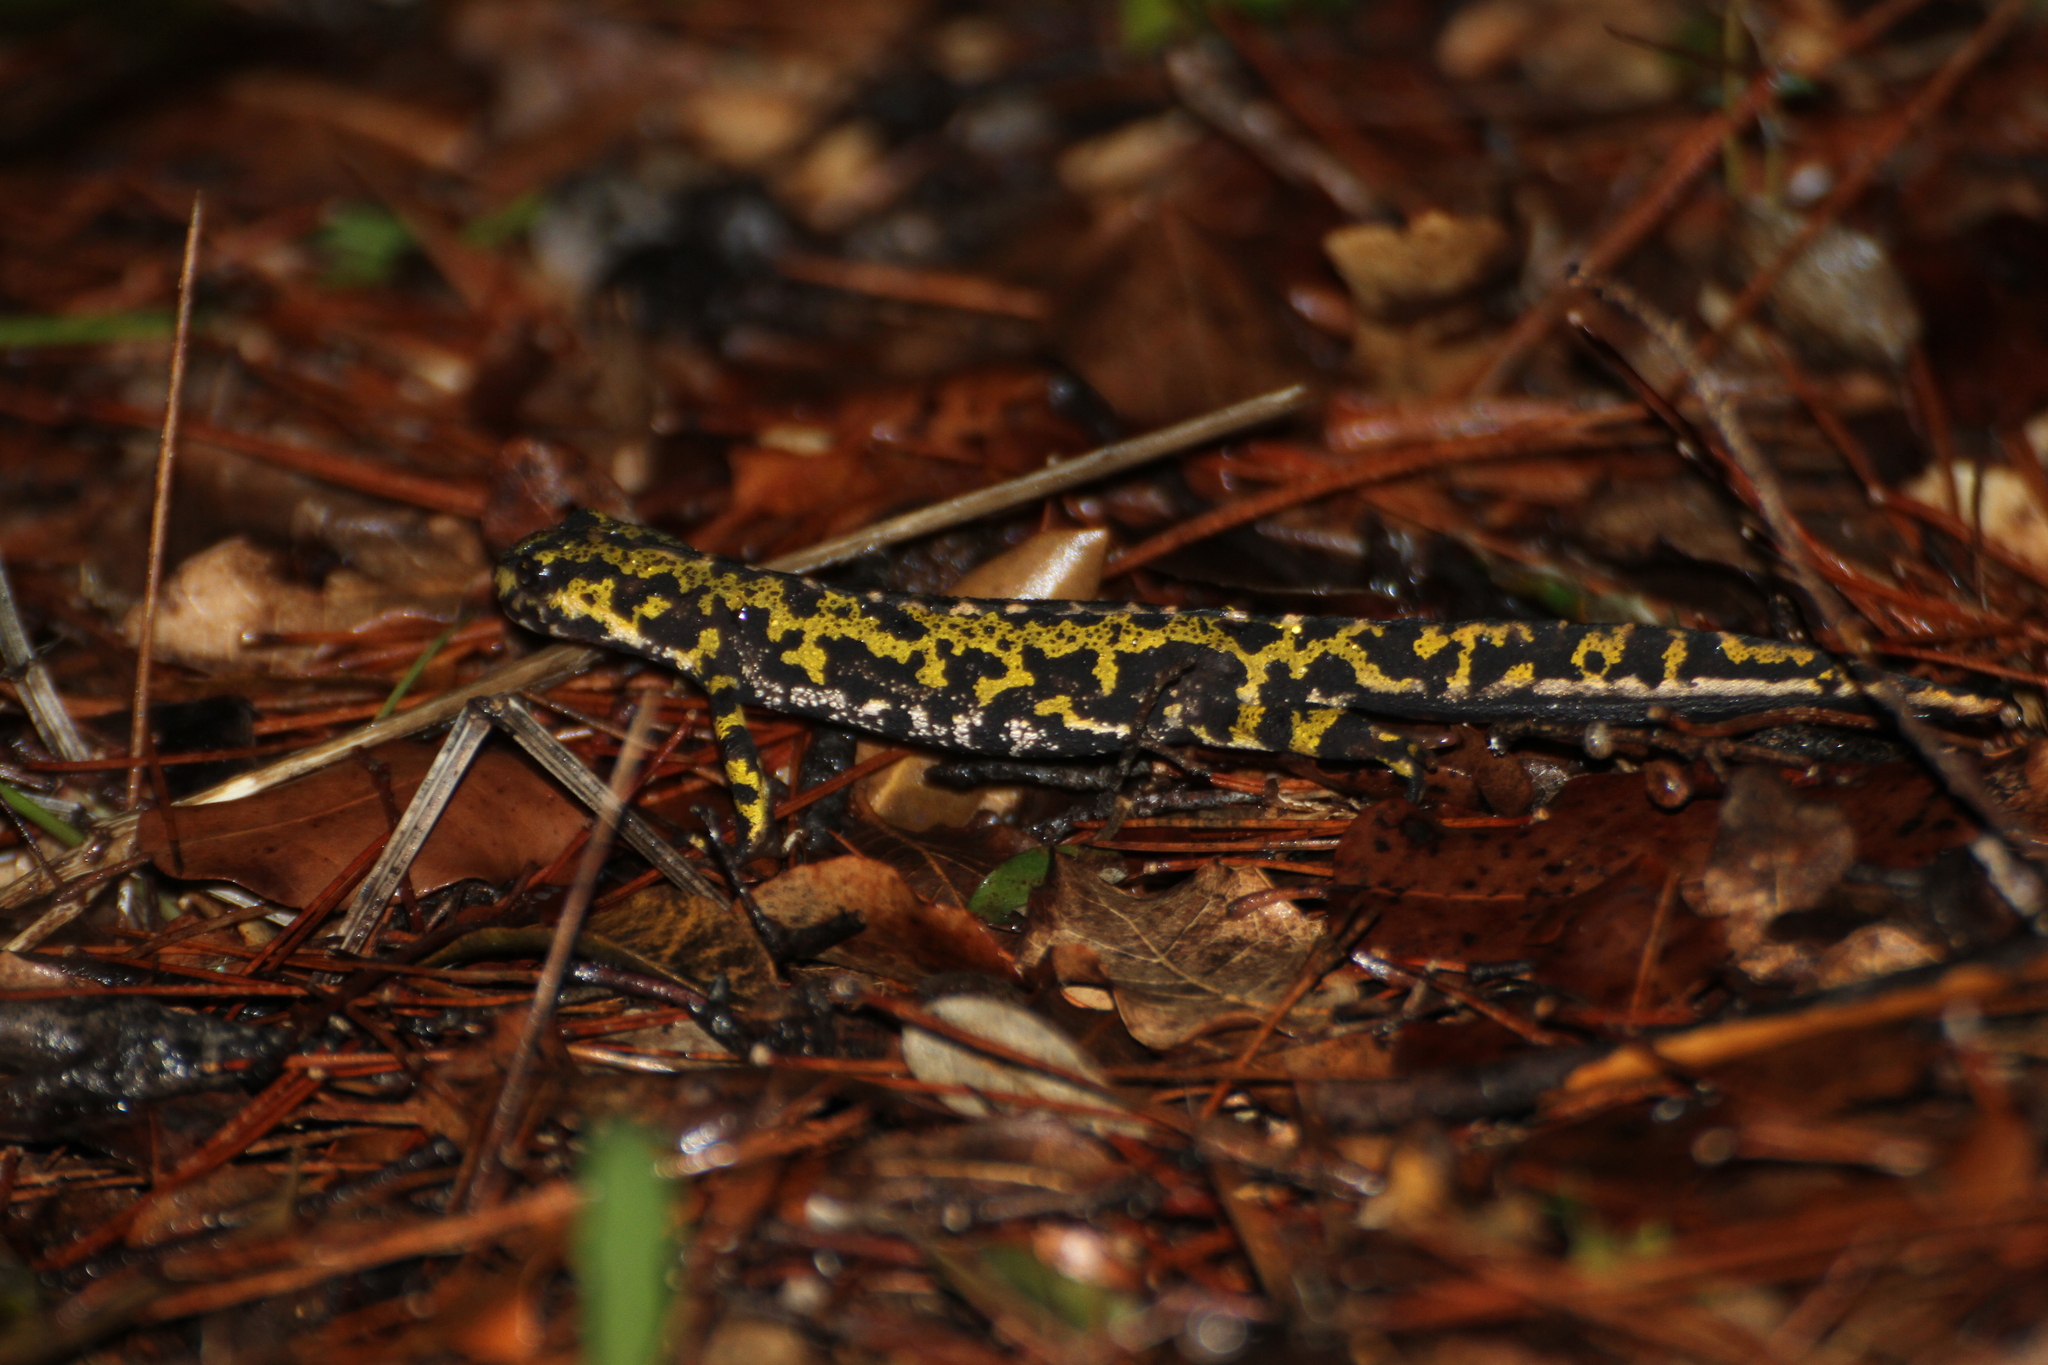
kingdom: Animalia
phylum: Chordata
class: Amphibia
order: Caudata
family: Salamandridae
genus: Triturus
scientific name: Triturus marmoratus
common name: Marbled newt
